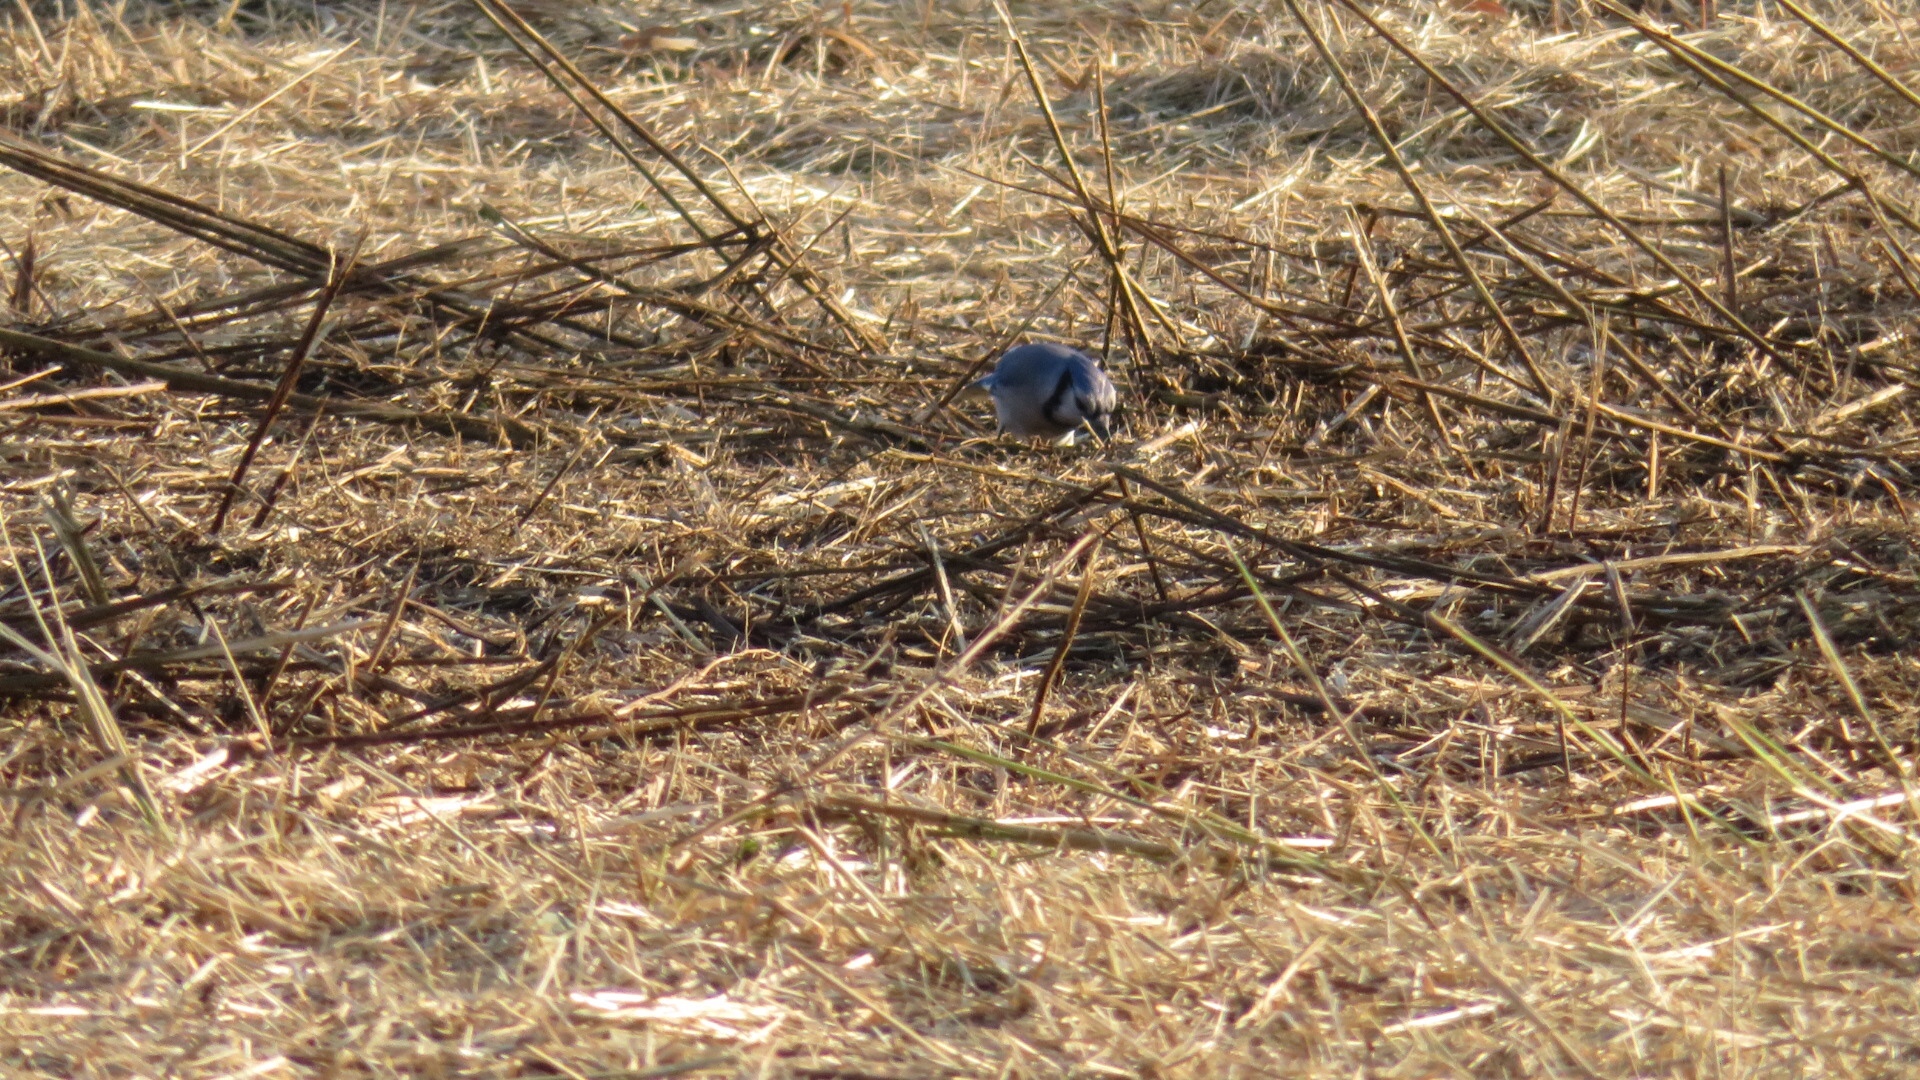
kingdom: Animalia
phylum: Chordata
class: Aves
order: Passeriformes
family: Corvidae
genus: Cyanocitta
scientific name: Cyanocitta cristata
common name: Blue jay
